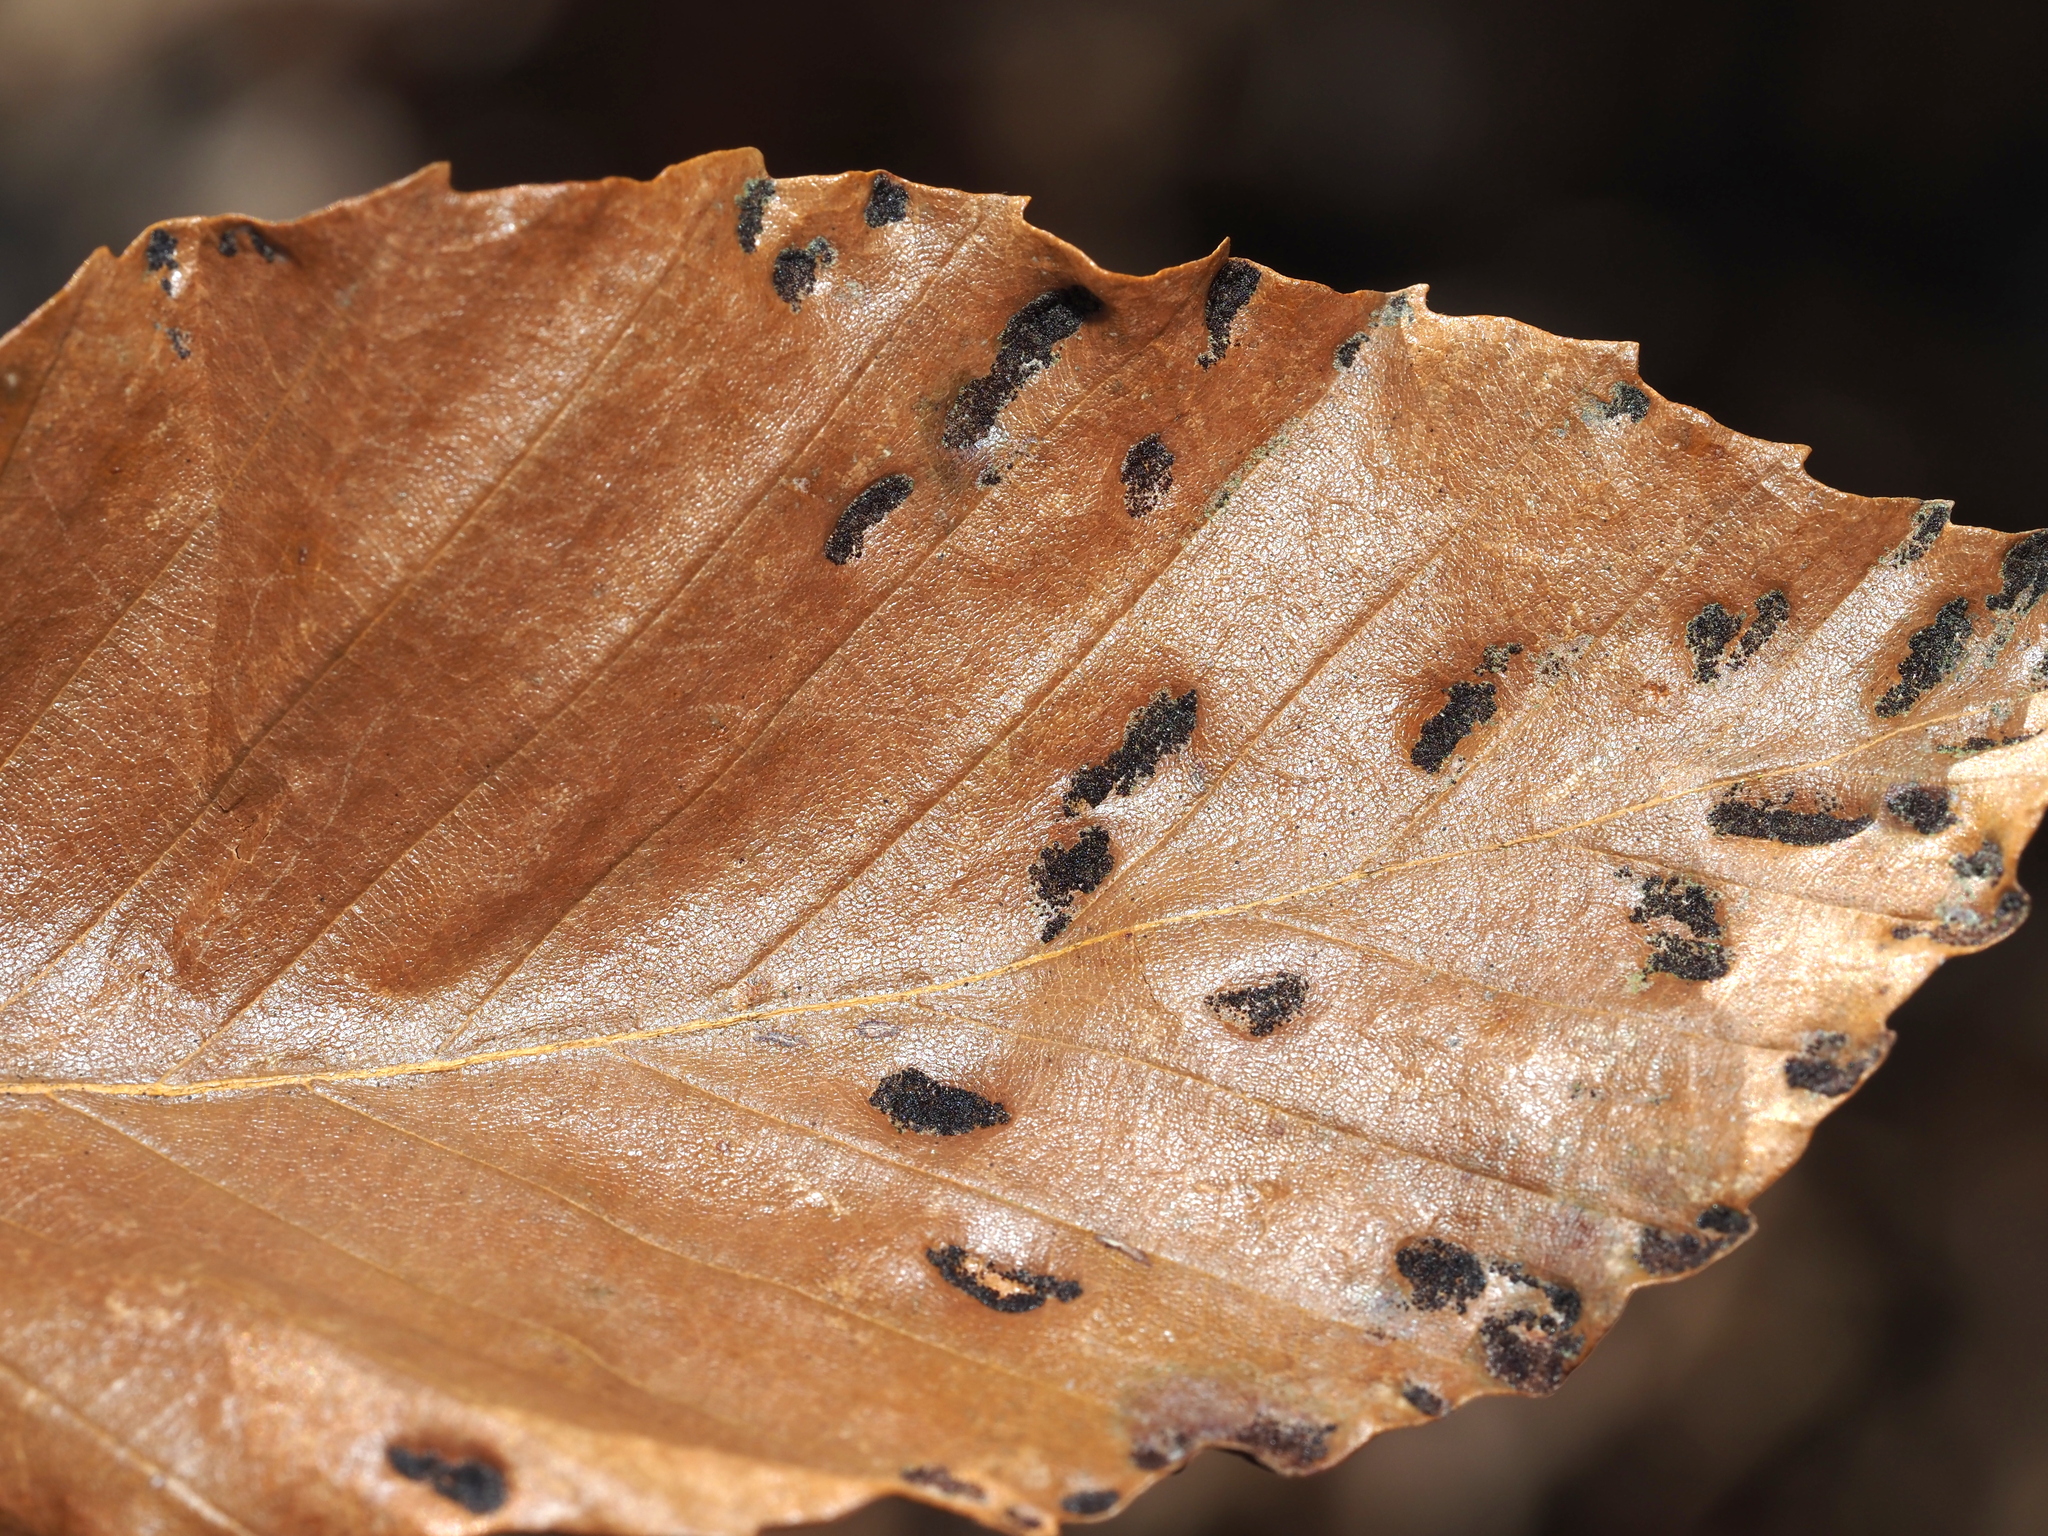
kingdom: Animalia
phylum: Arthropoda
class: Arachnida
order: Trombidiformes
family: Eriophyidae
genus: Acalitus
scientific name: Acalitus
